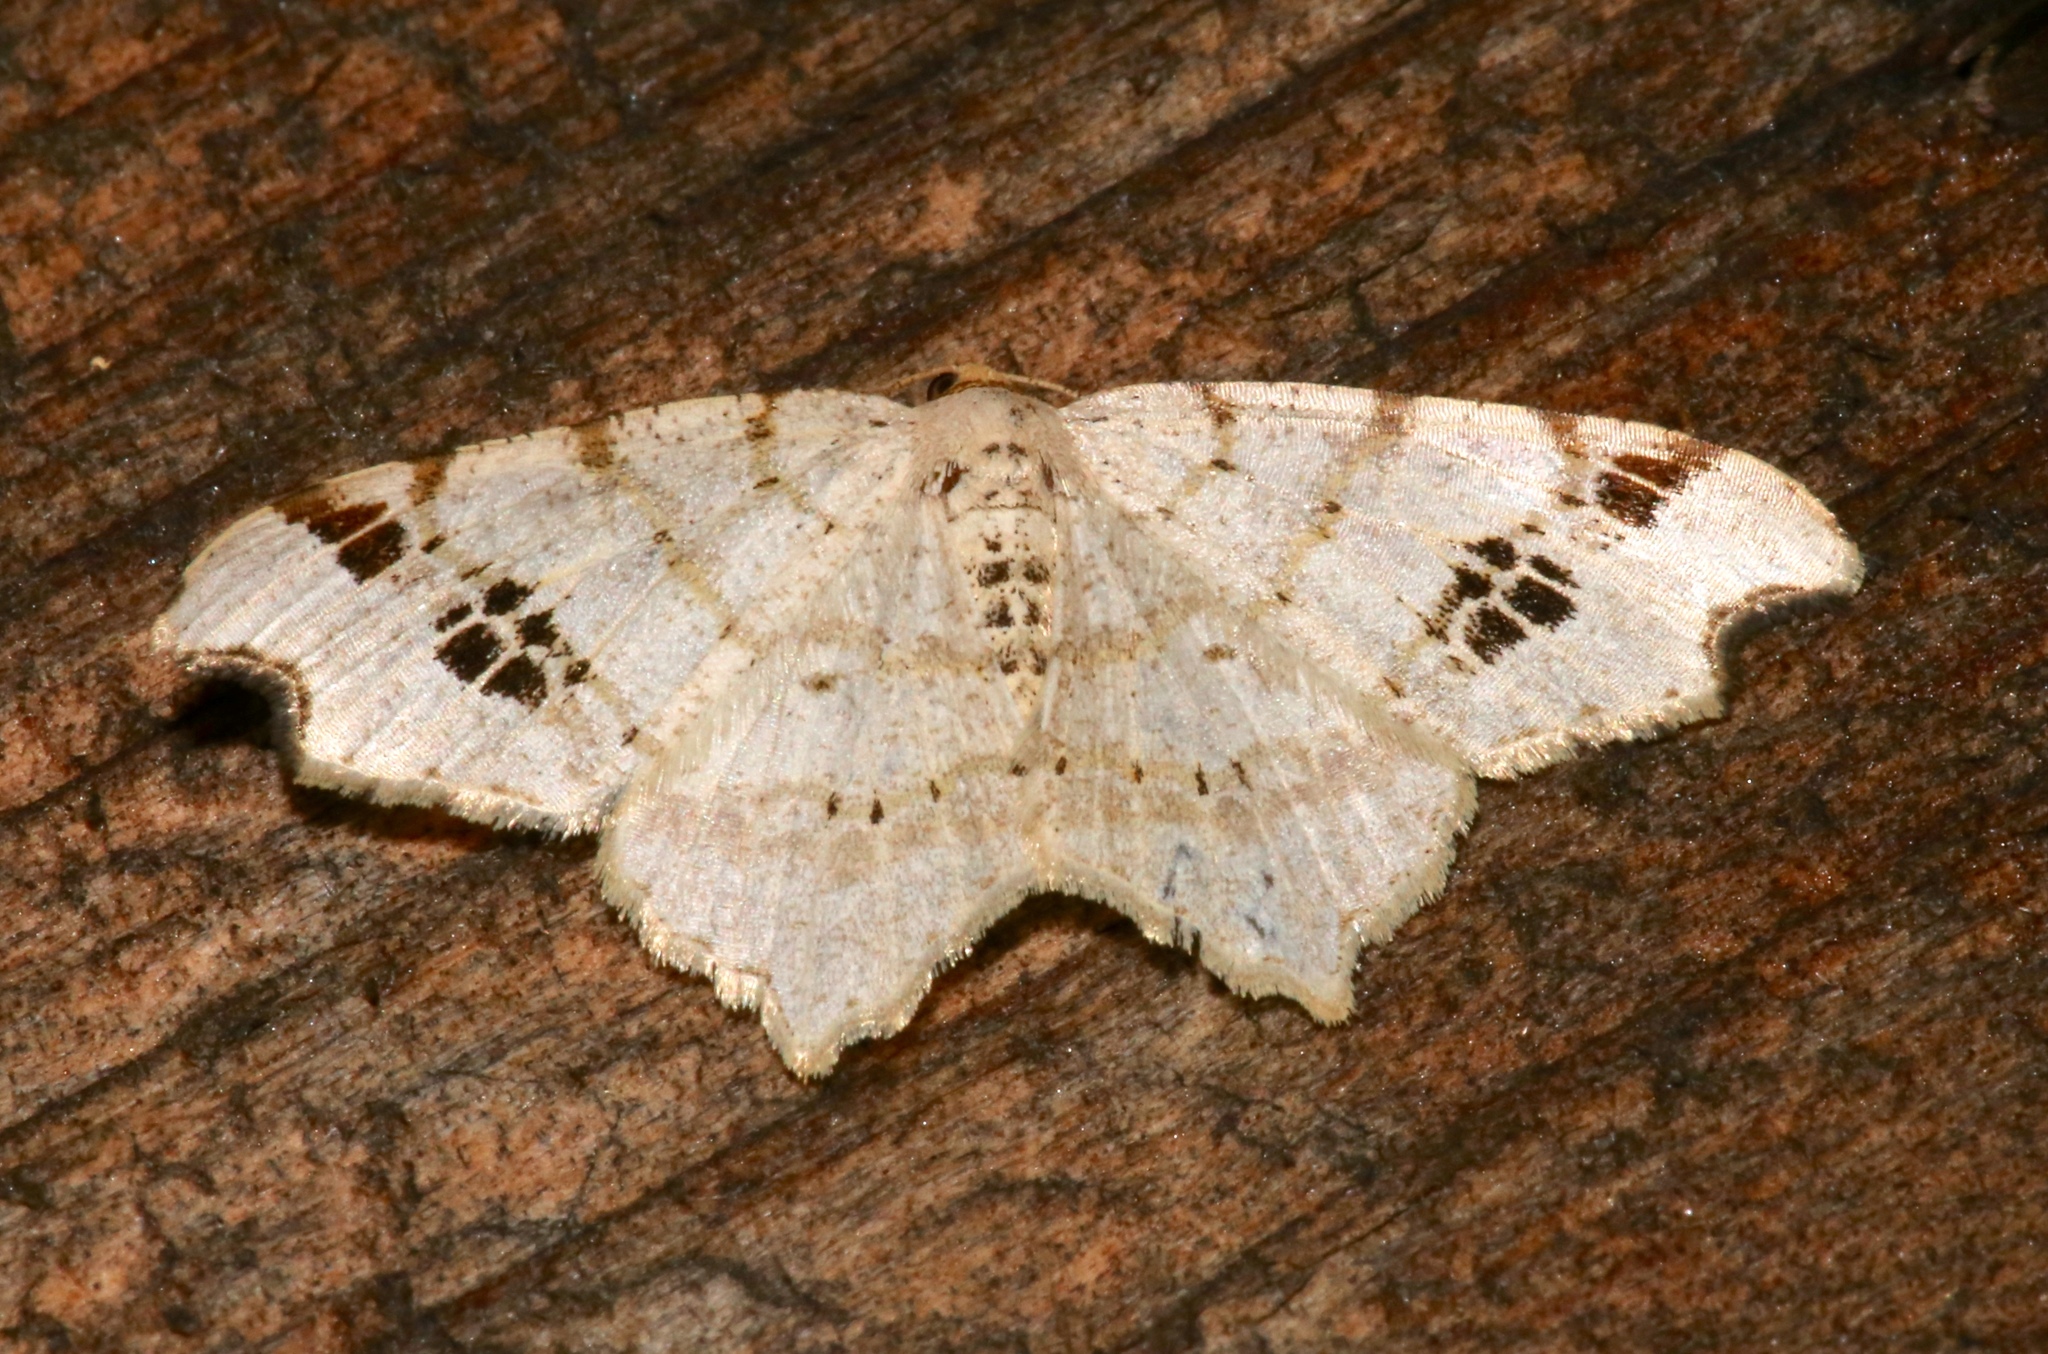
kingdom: Animalia
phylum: Arthropoda
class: Insecta
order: Lepidoptera
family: Geometridae
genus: Macaria
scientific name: Macaria aemulataria
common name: Common angle
